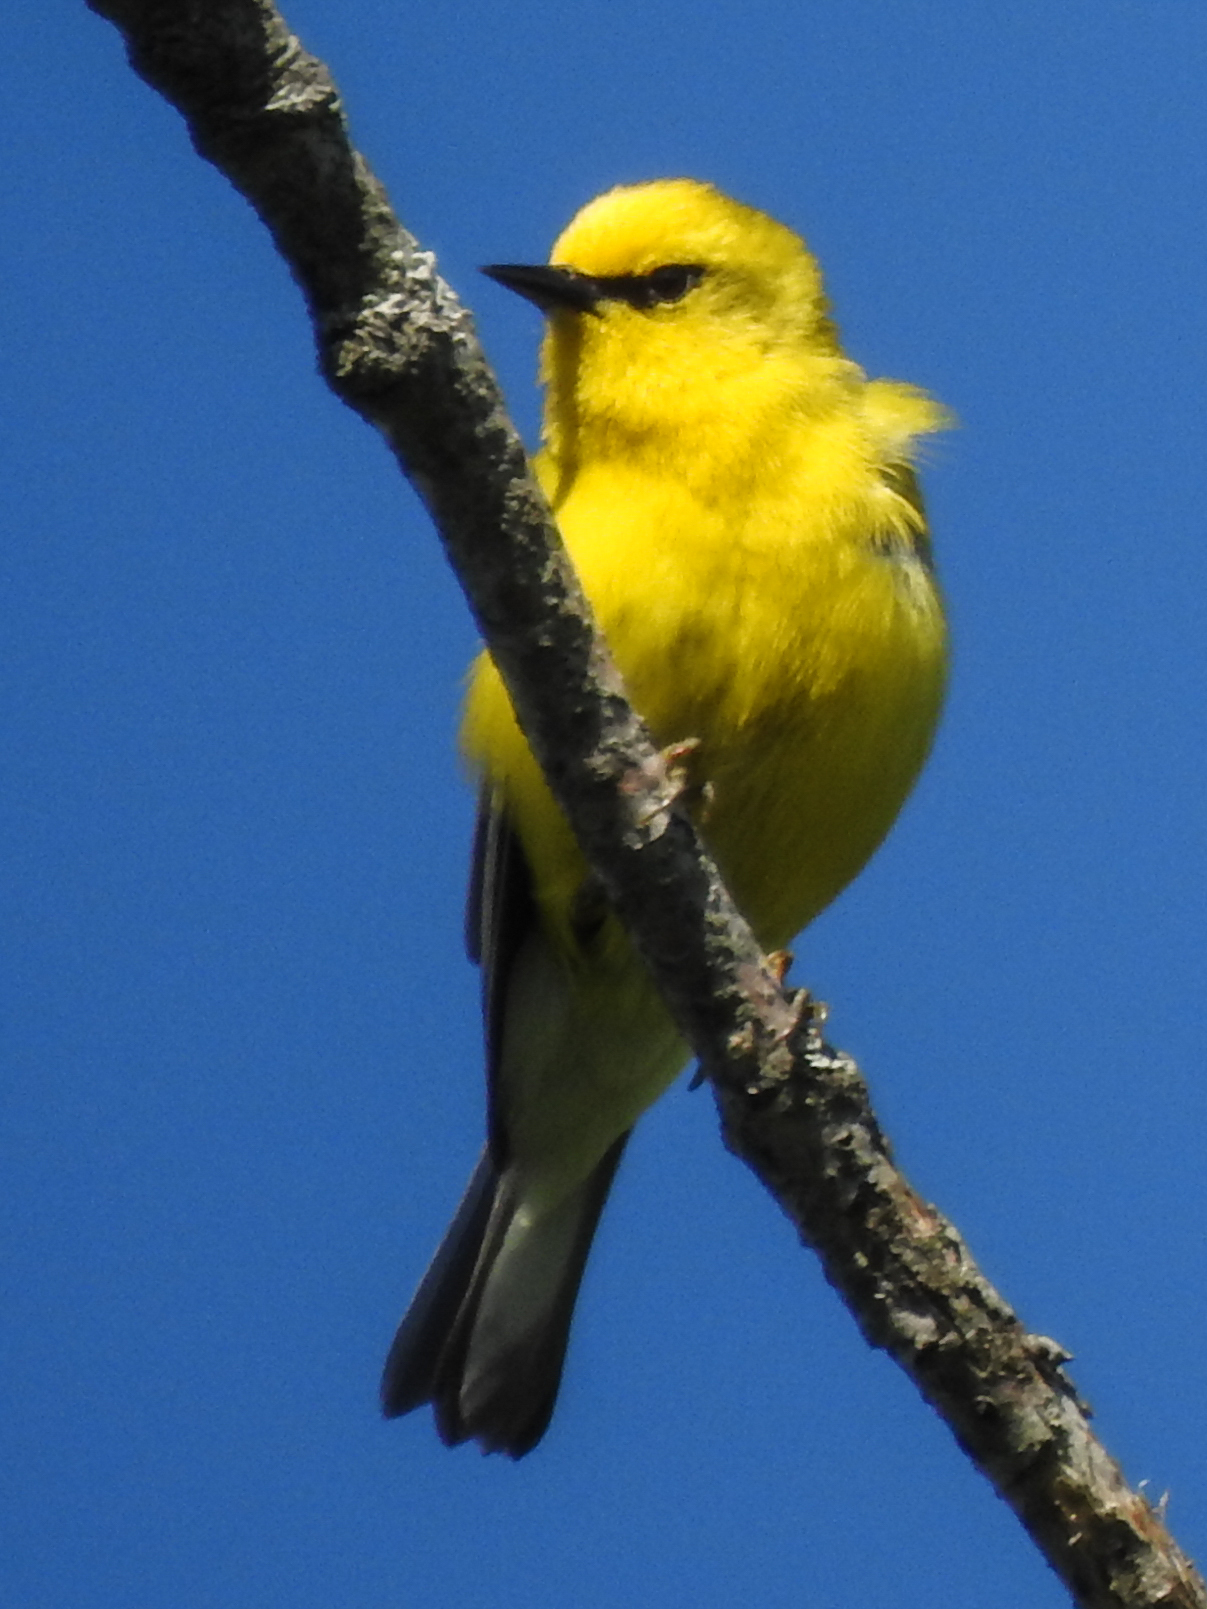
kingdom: Animalia
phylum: Chordata
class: Aves
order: Passeriformes
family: Parulidae
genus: Vermivora
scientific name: Vermivora cyanoptera
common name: Blue-winged warbler
